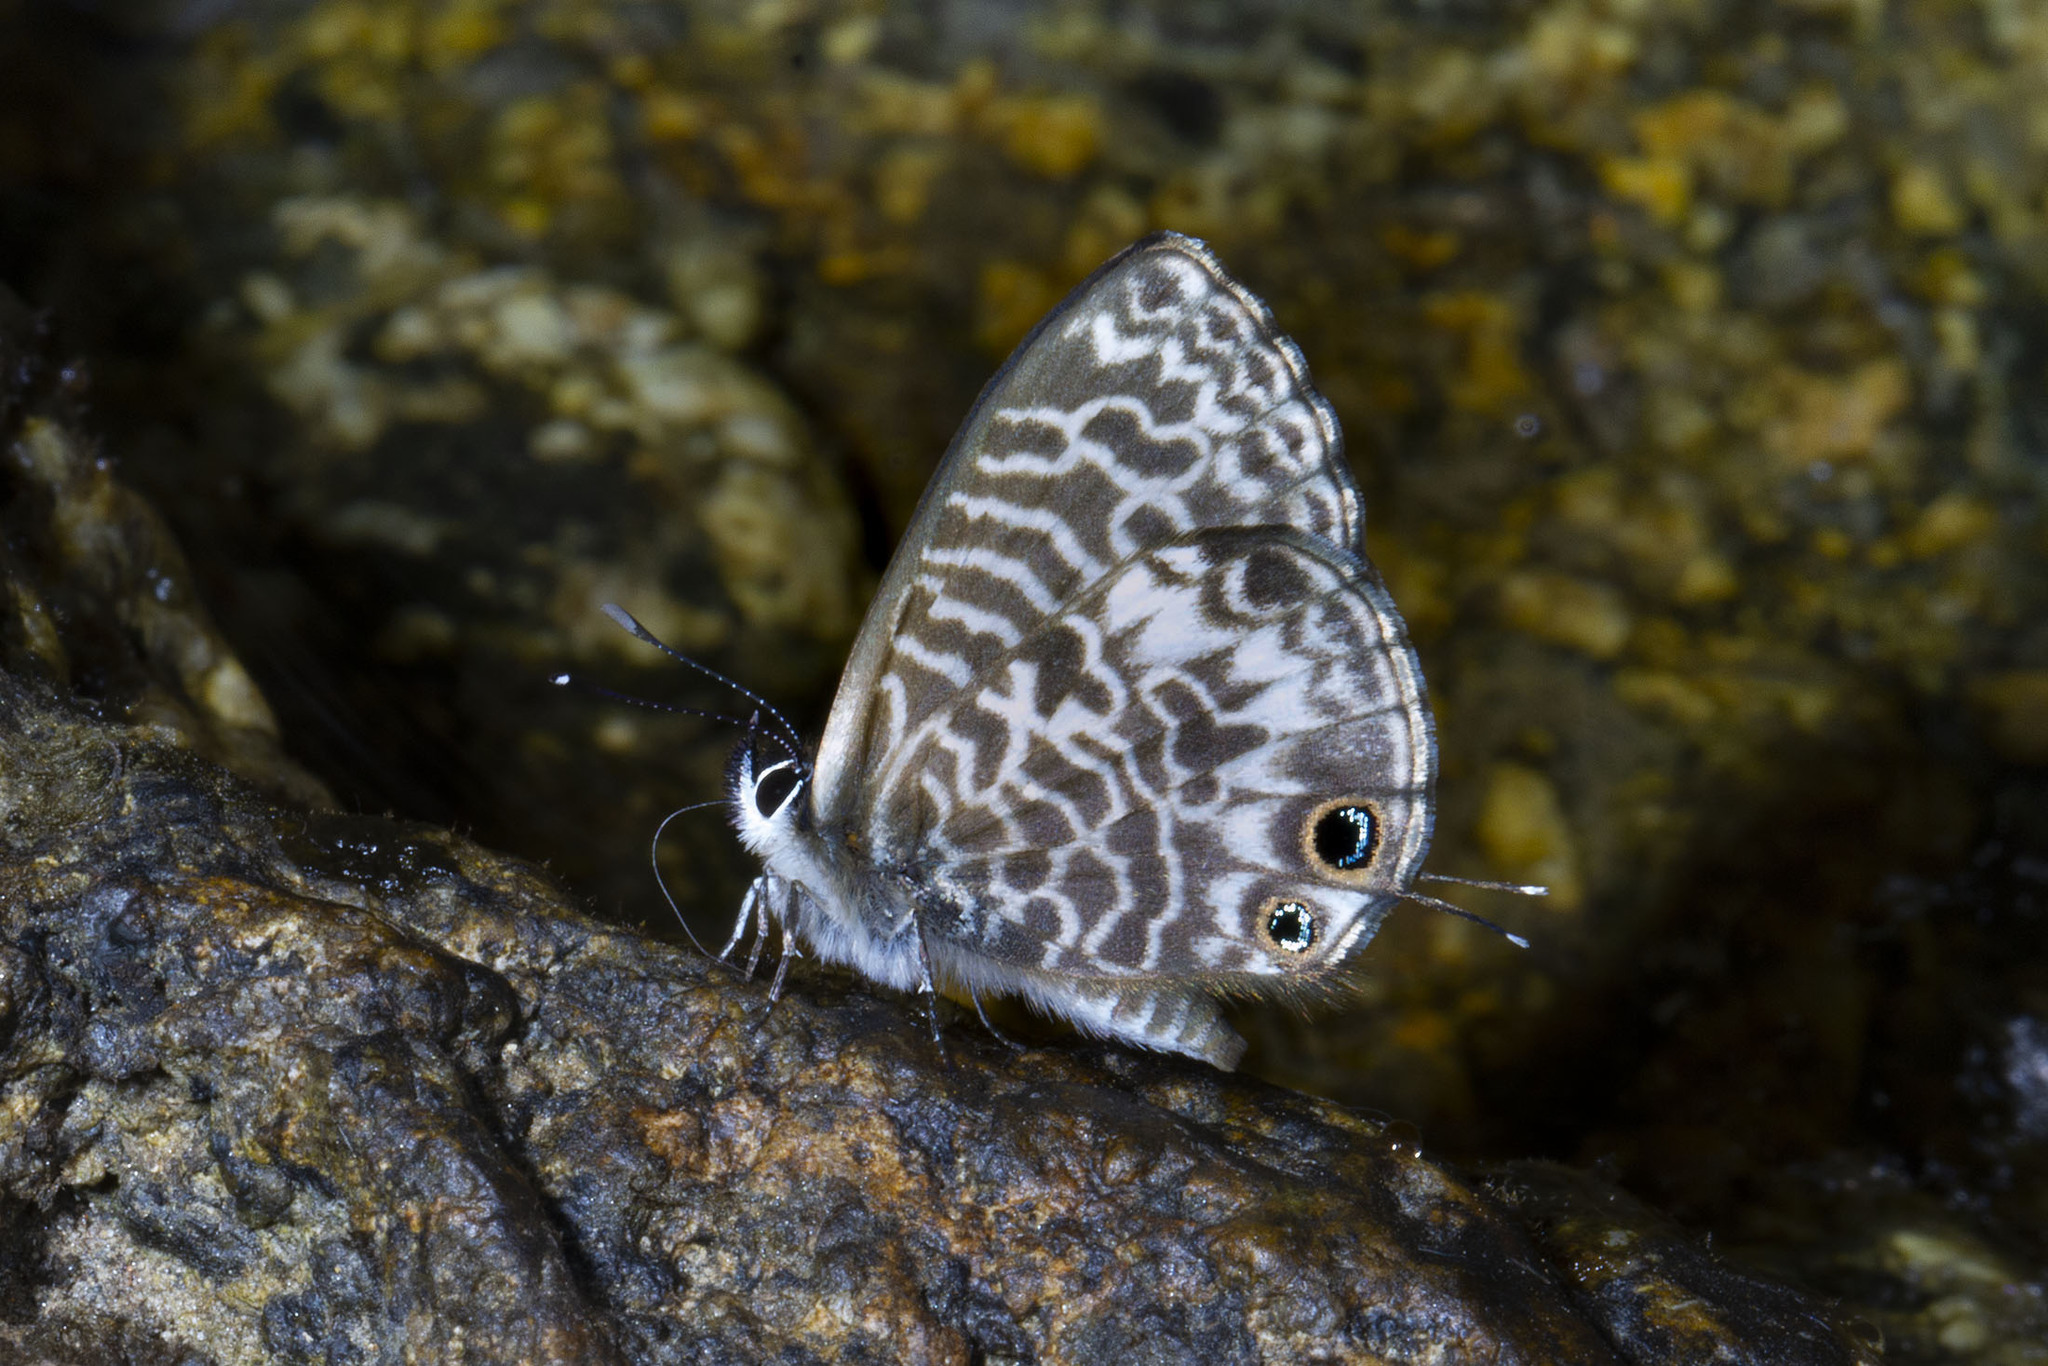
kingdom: Animalia
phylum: Arthropoda
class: Insecta
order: Lepidoptera
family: Lycaenidae
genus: Leptotes
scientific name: Leptotes rabenafer
